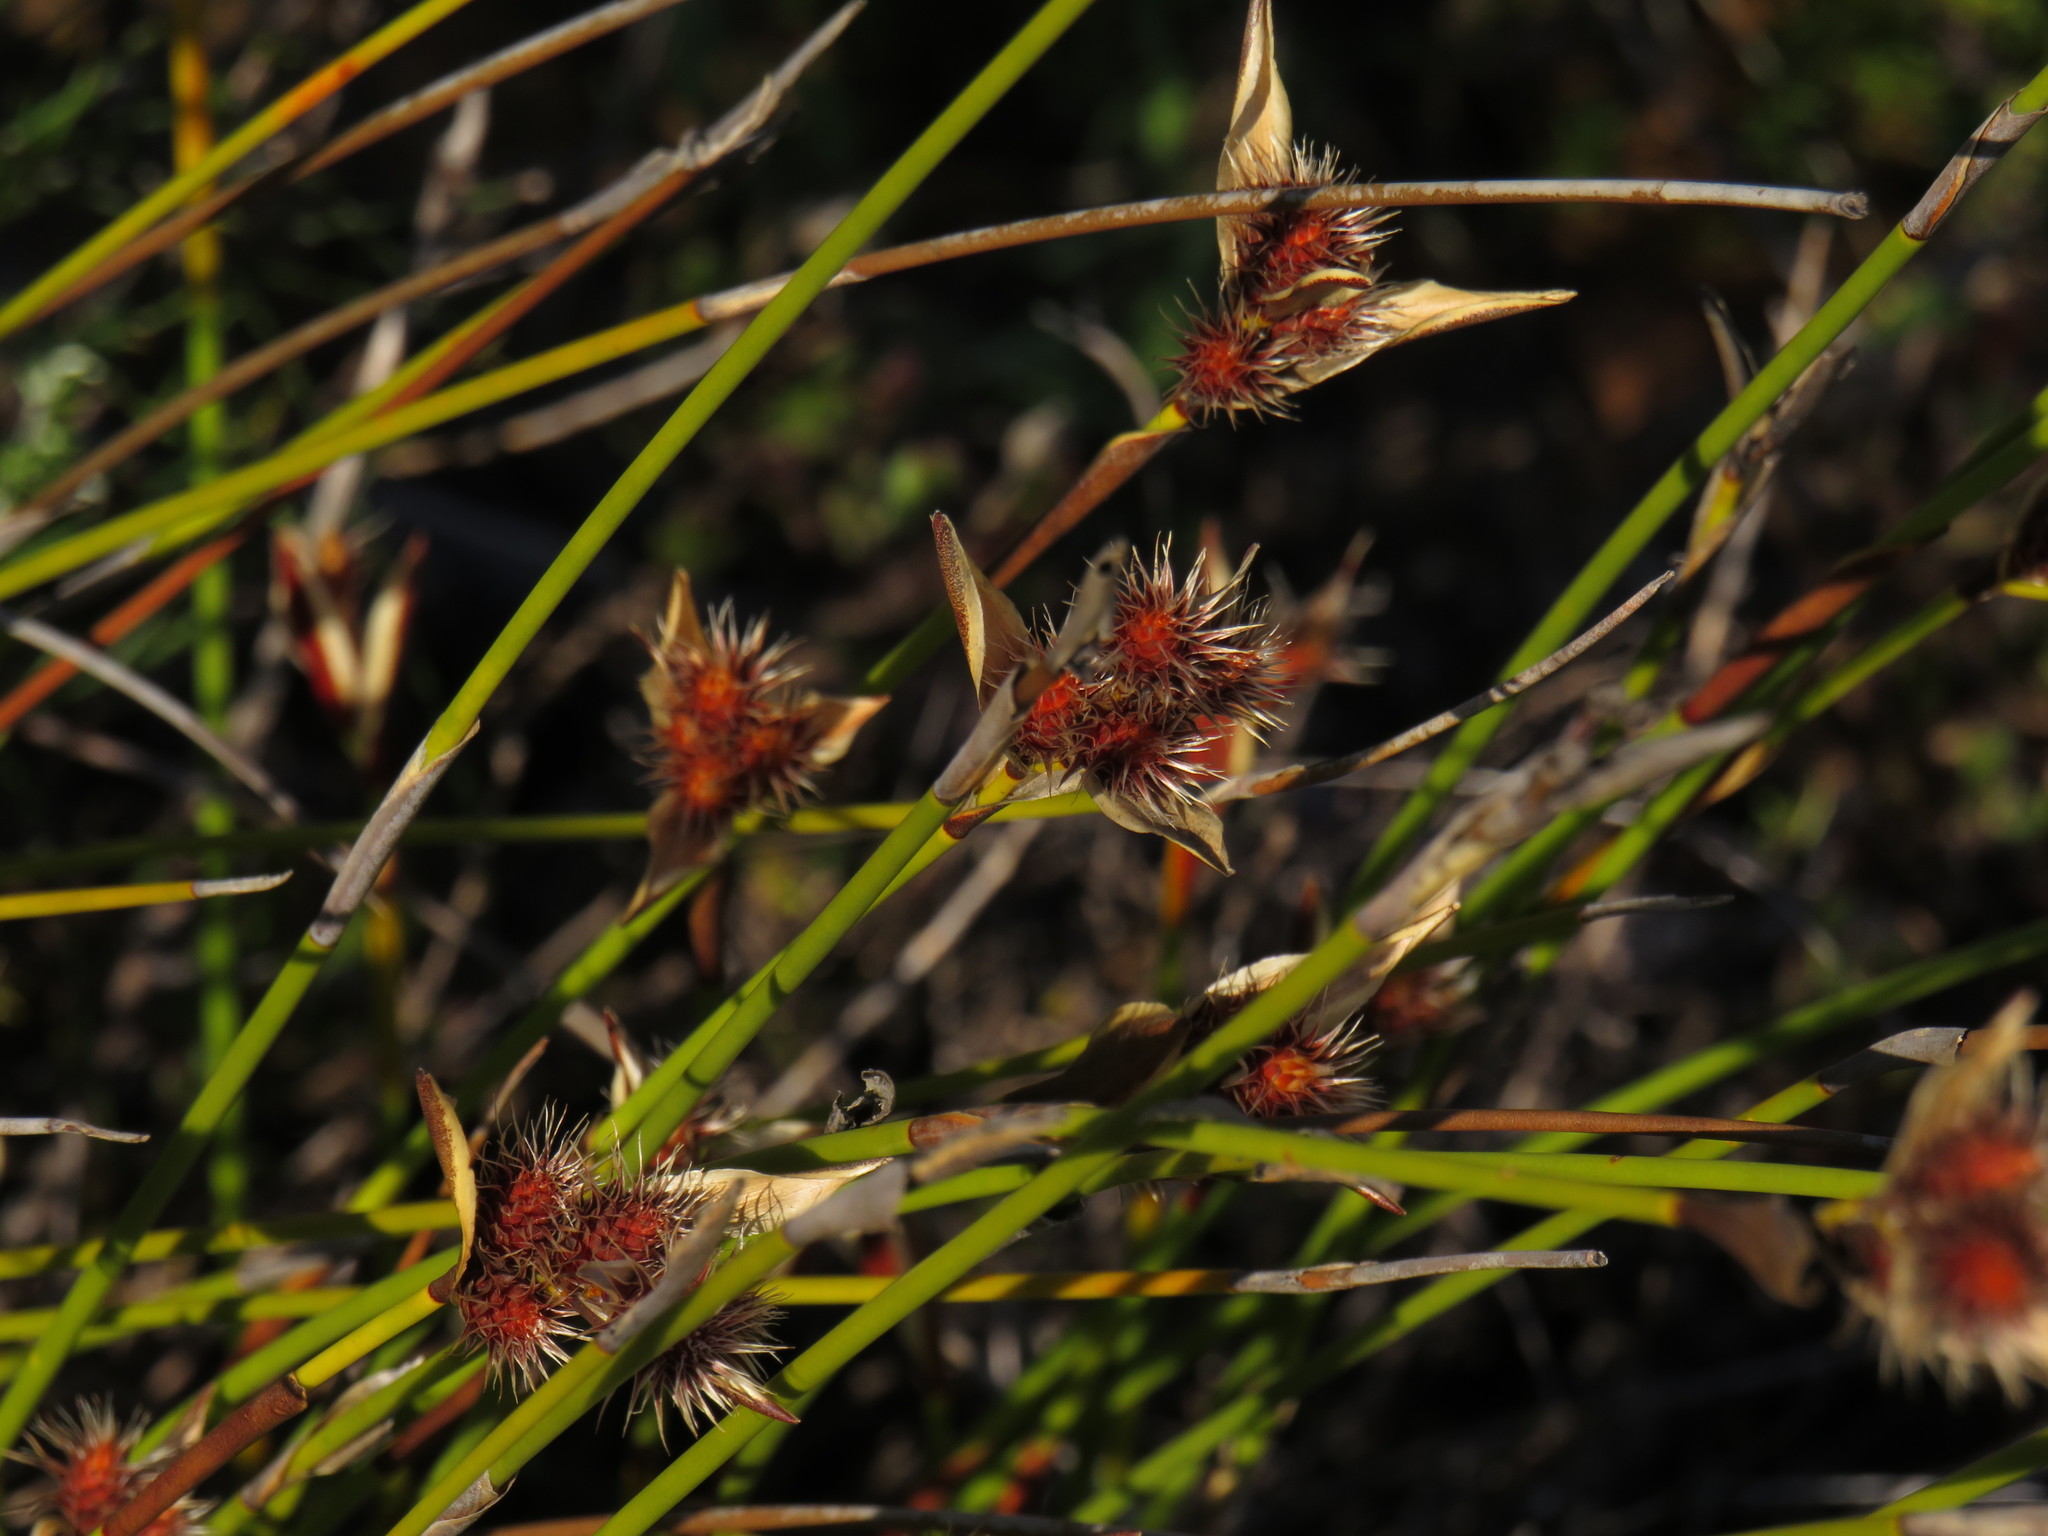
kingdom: Plantae
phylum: Tracheophyta
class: Liliopsida
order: Poales
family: Restionaceae
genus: Hypodiscus
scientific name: Hypodiscus alboaristatus
